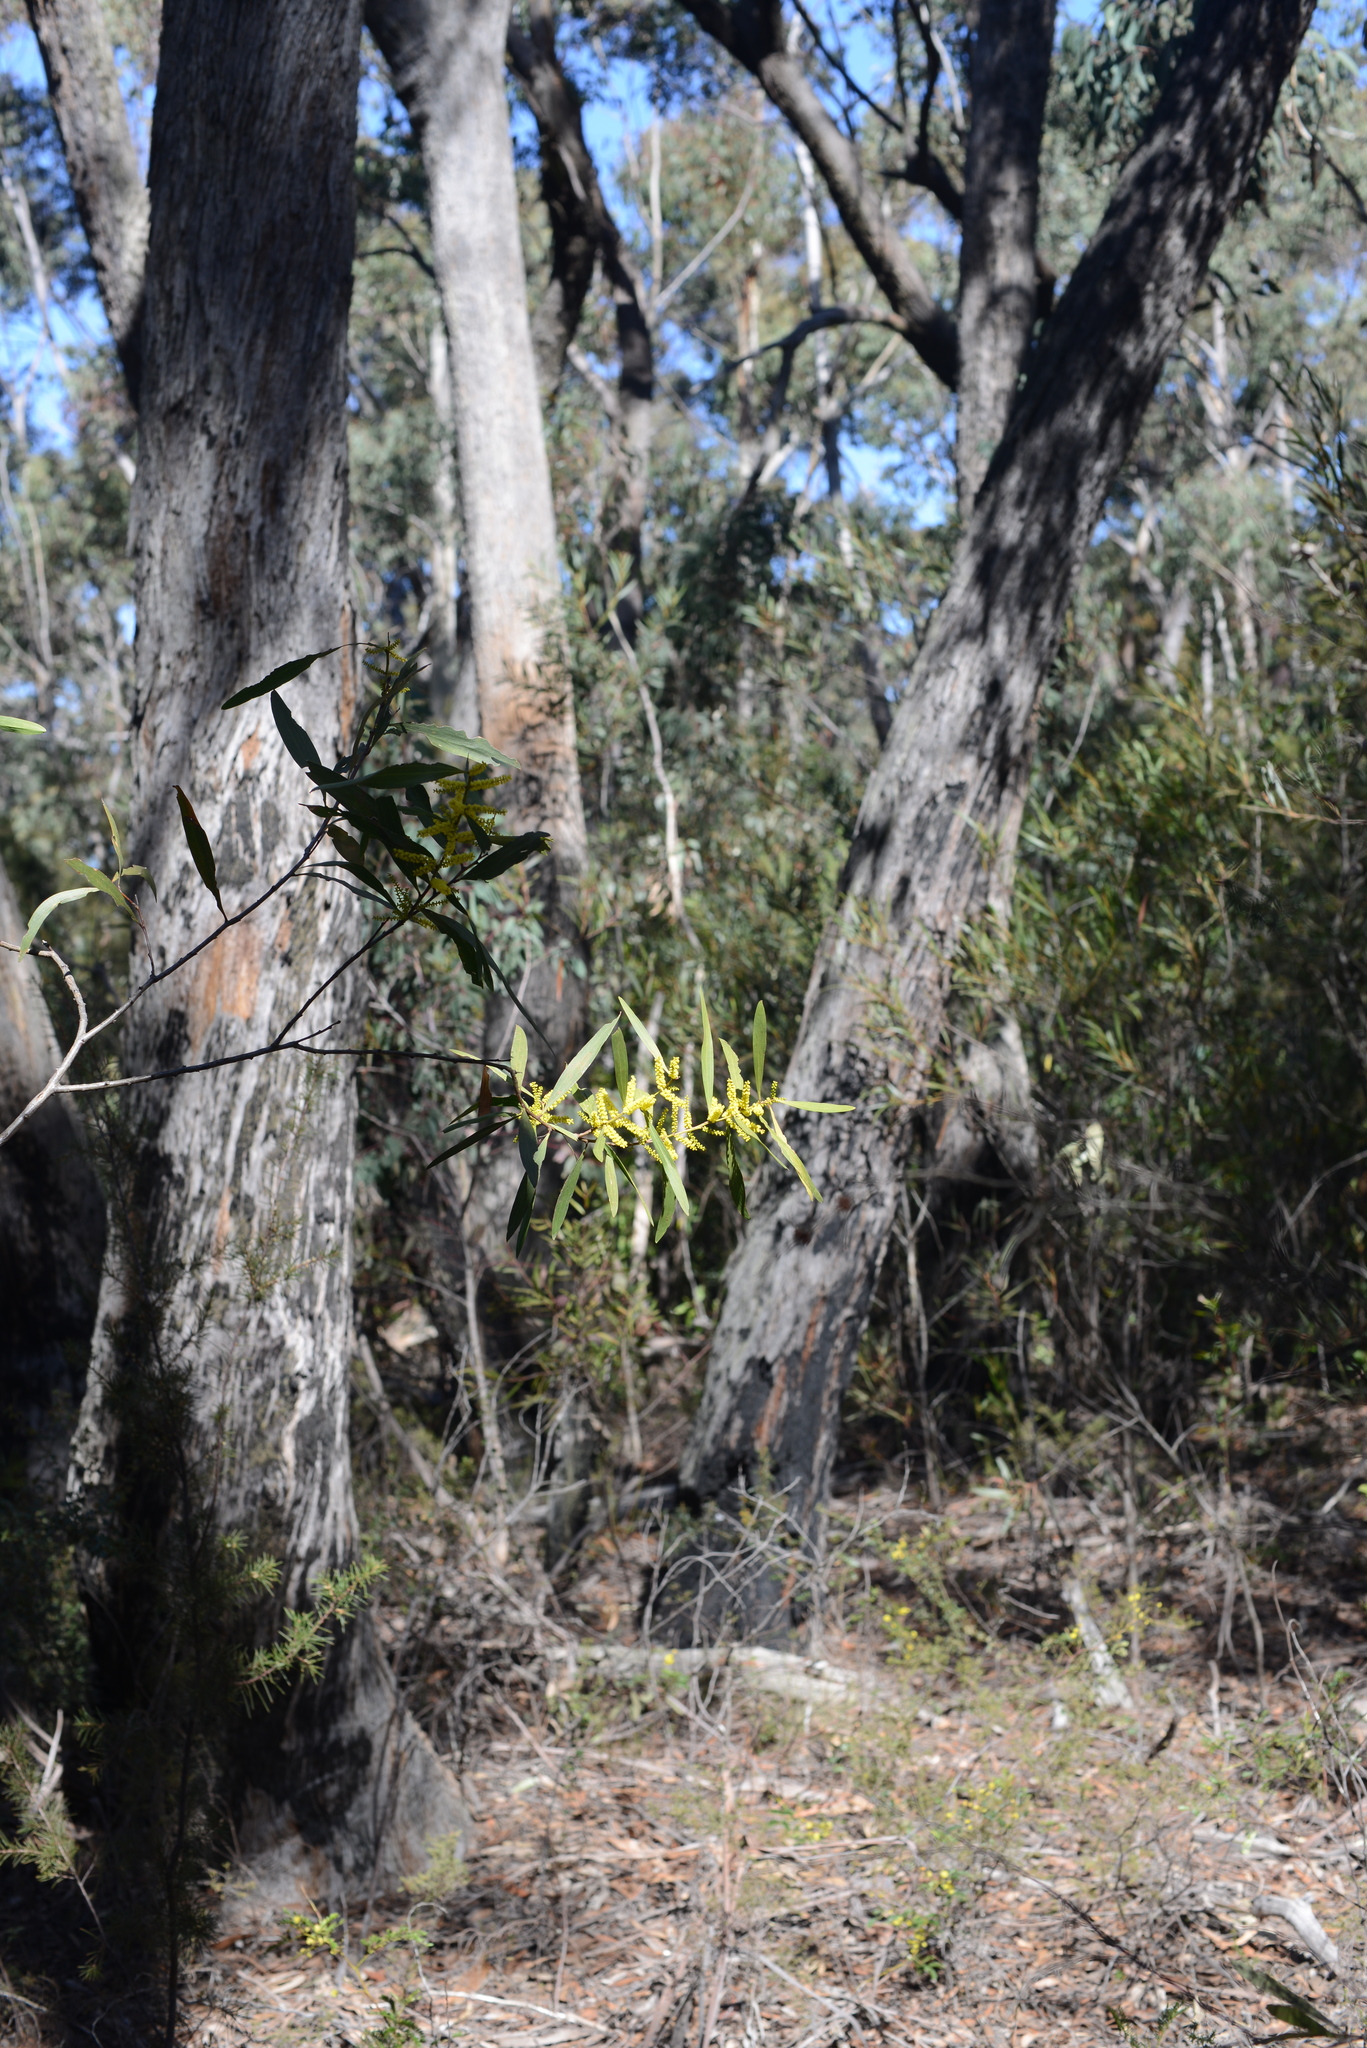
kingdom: Plantae
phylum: Tracheophyta
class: Magnoliopsida
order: Fabales
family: Fabaceae
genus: Acacia
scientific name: Acacia longifolia
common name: Sydney golden wattle
